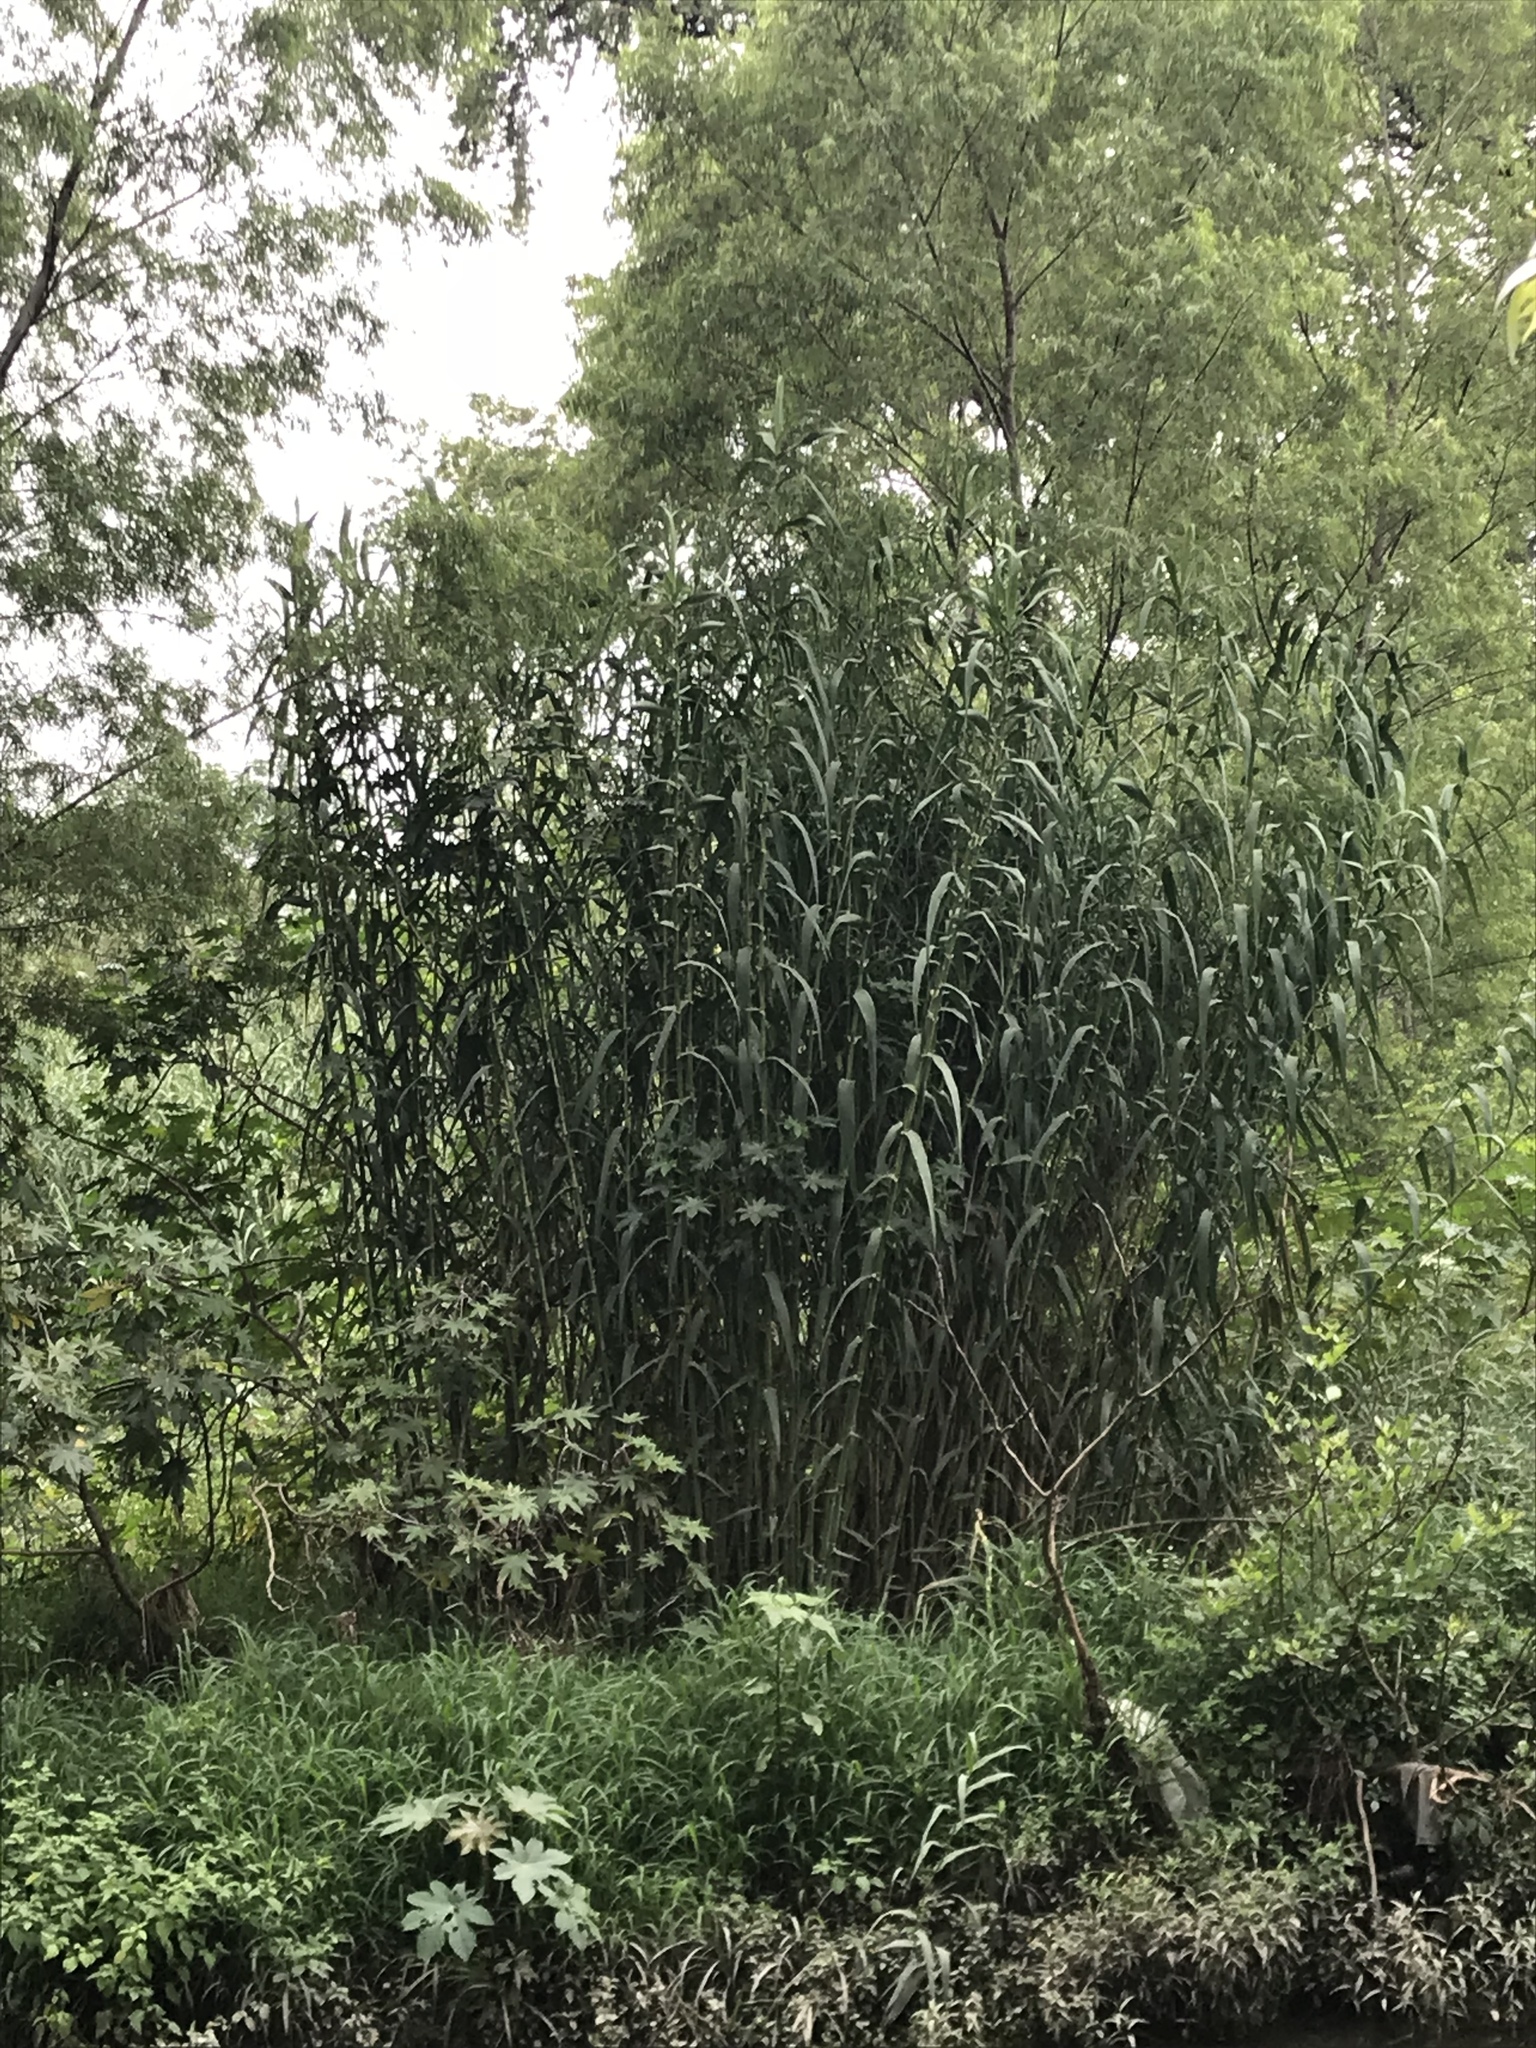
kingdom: Plantae
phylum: Tracheophyta
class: Liliopsida
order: Poales
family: Poaceae
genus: Arundo
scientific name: Arundo donax
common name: Giant reed
